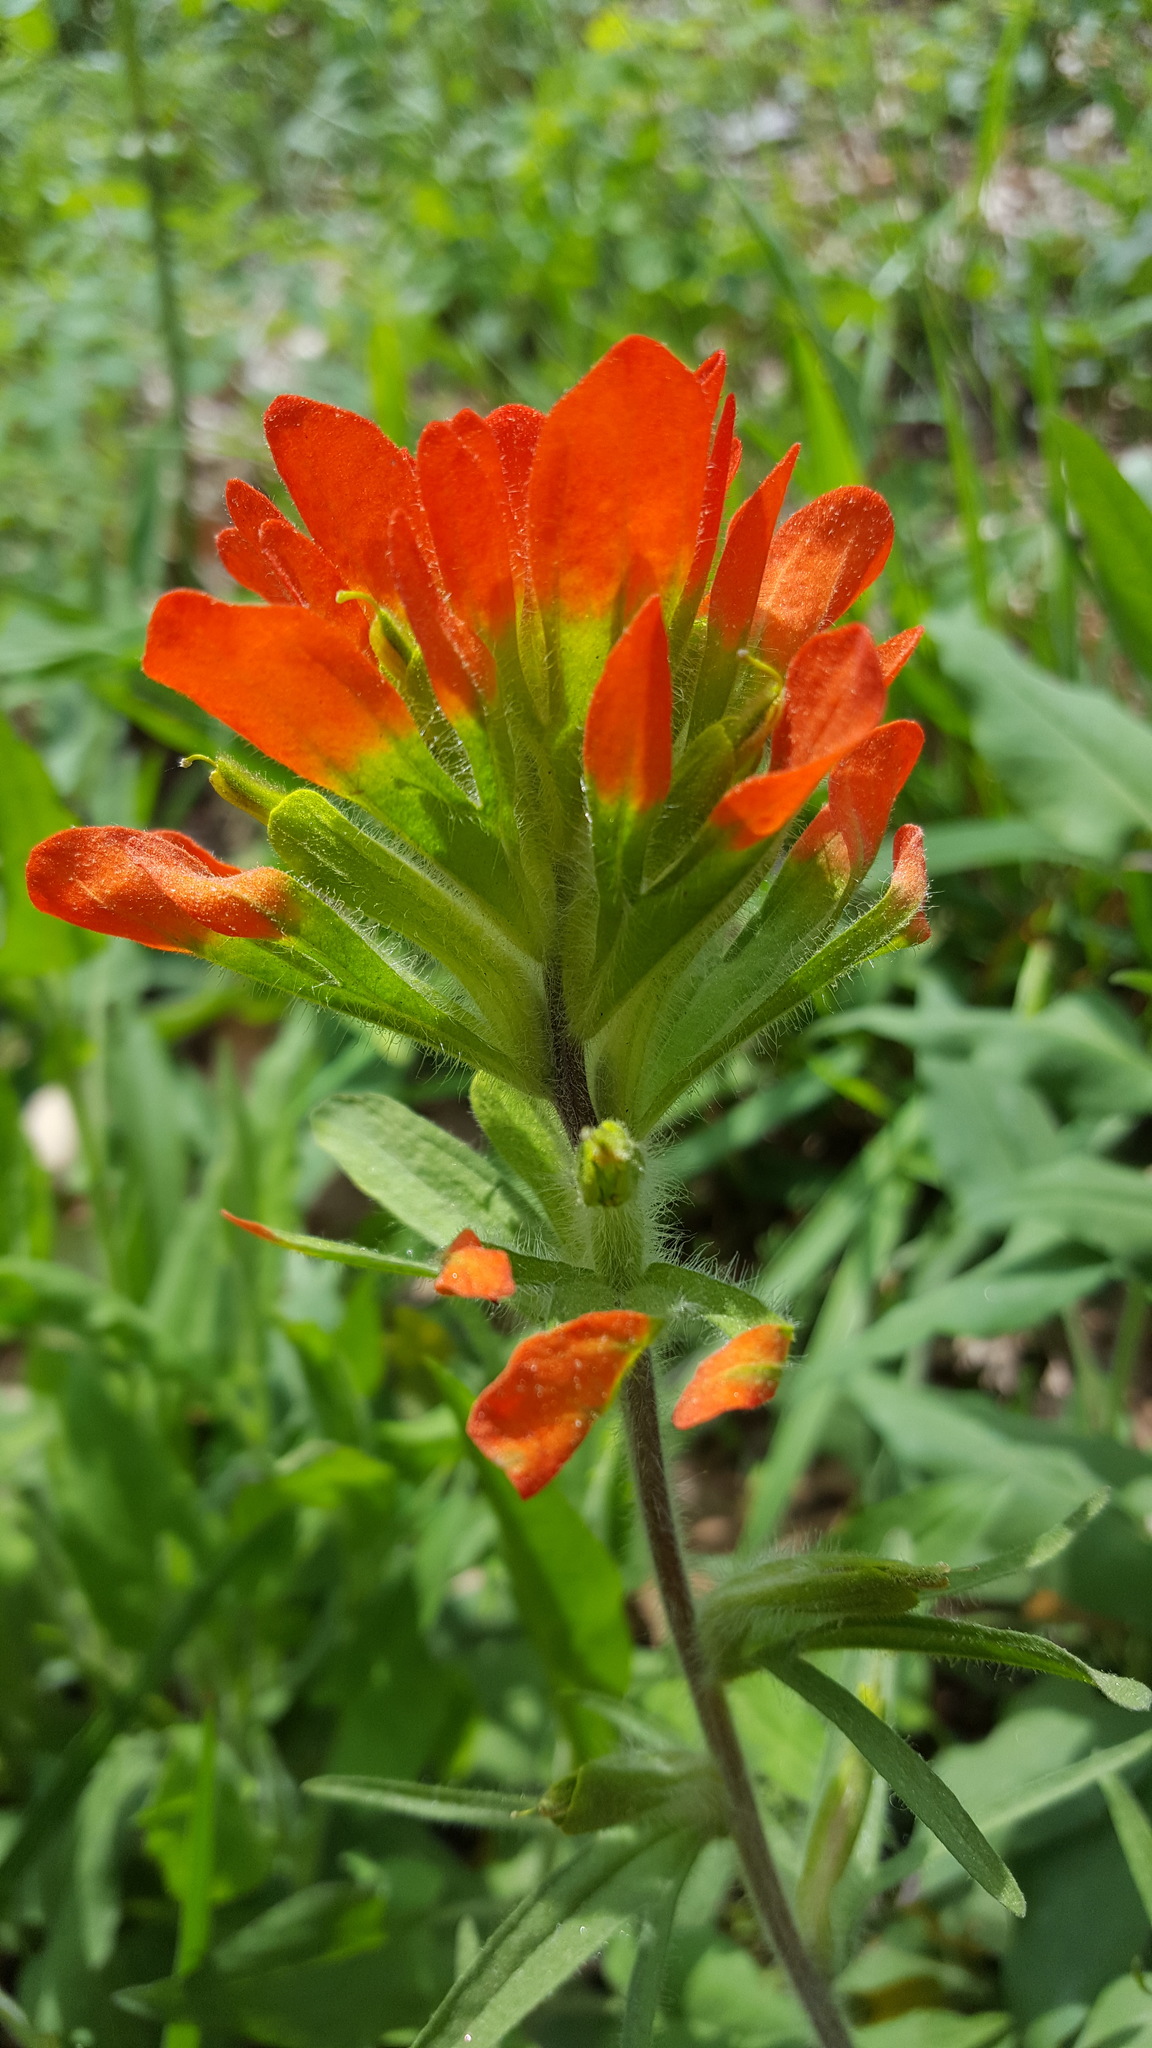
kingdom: Plantae
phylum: Tracheophyta
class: Magnoliopsida
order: Lamiales
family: Orobanchaceae
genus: Castilleja
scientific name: Castilleja coccinea
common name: Scarlet paintbrush
